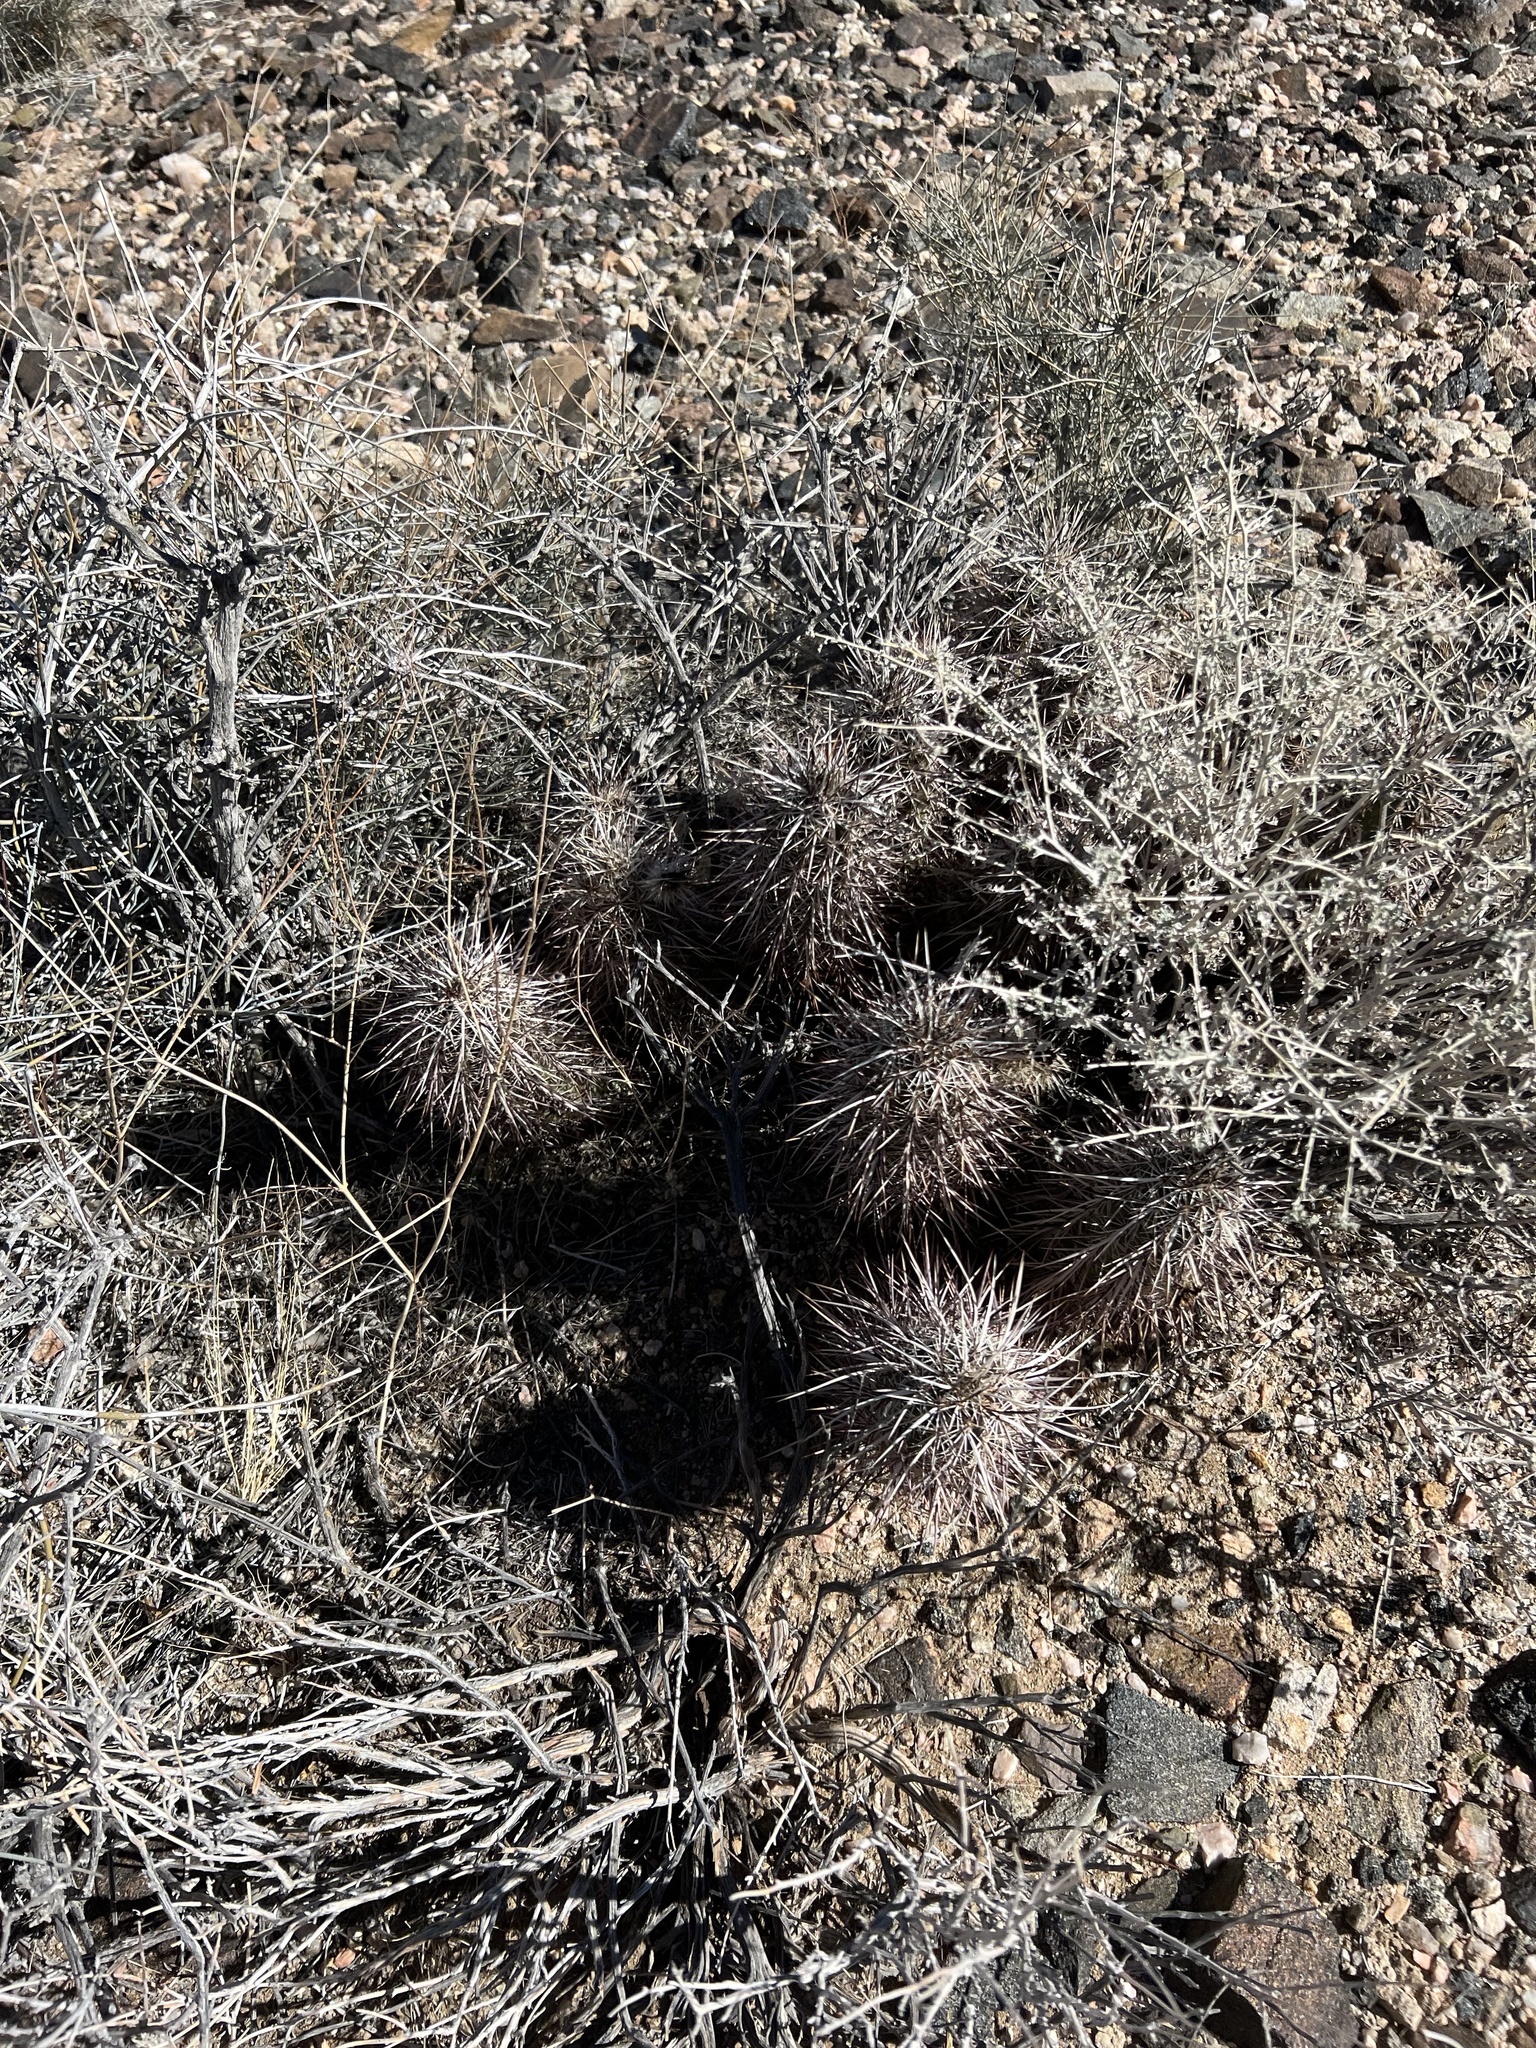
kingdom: Plantae
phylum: Tracheophyta
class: Magnoliopsida
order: Caryophyllales
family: Cactaceae
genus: Echinocereus
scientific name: Echinocereus engelmannii
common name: Engelmann's hedgehog cactus
